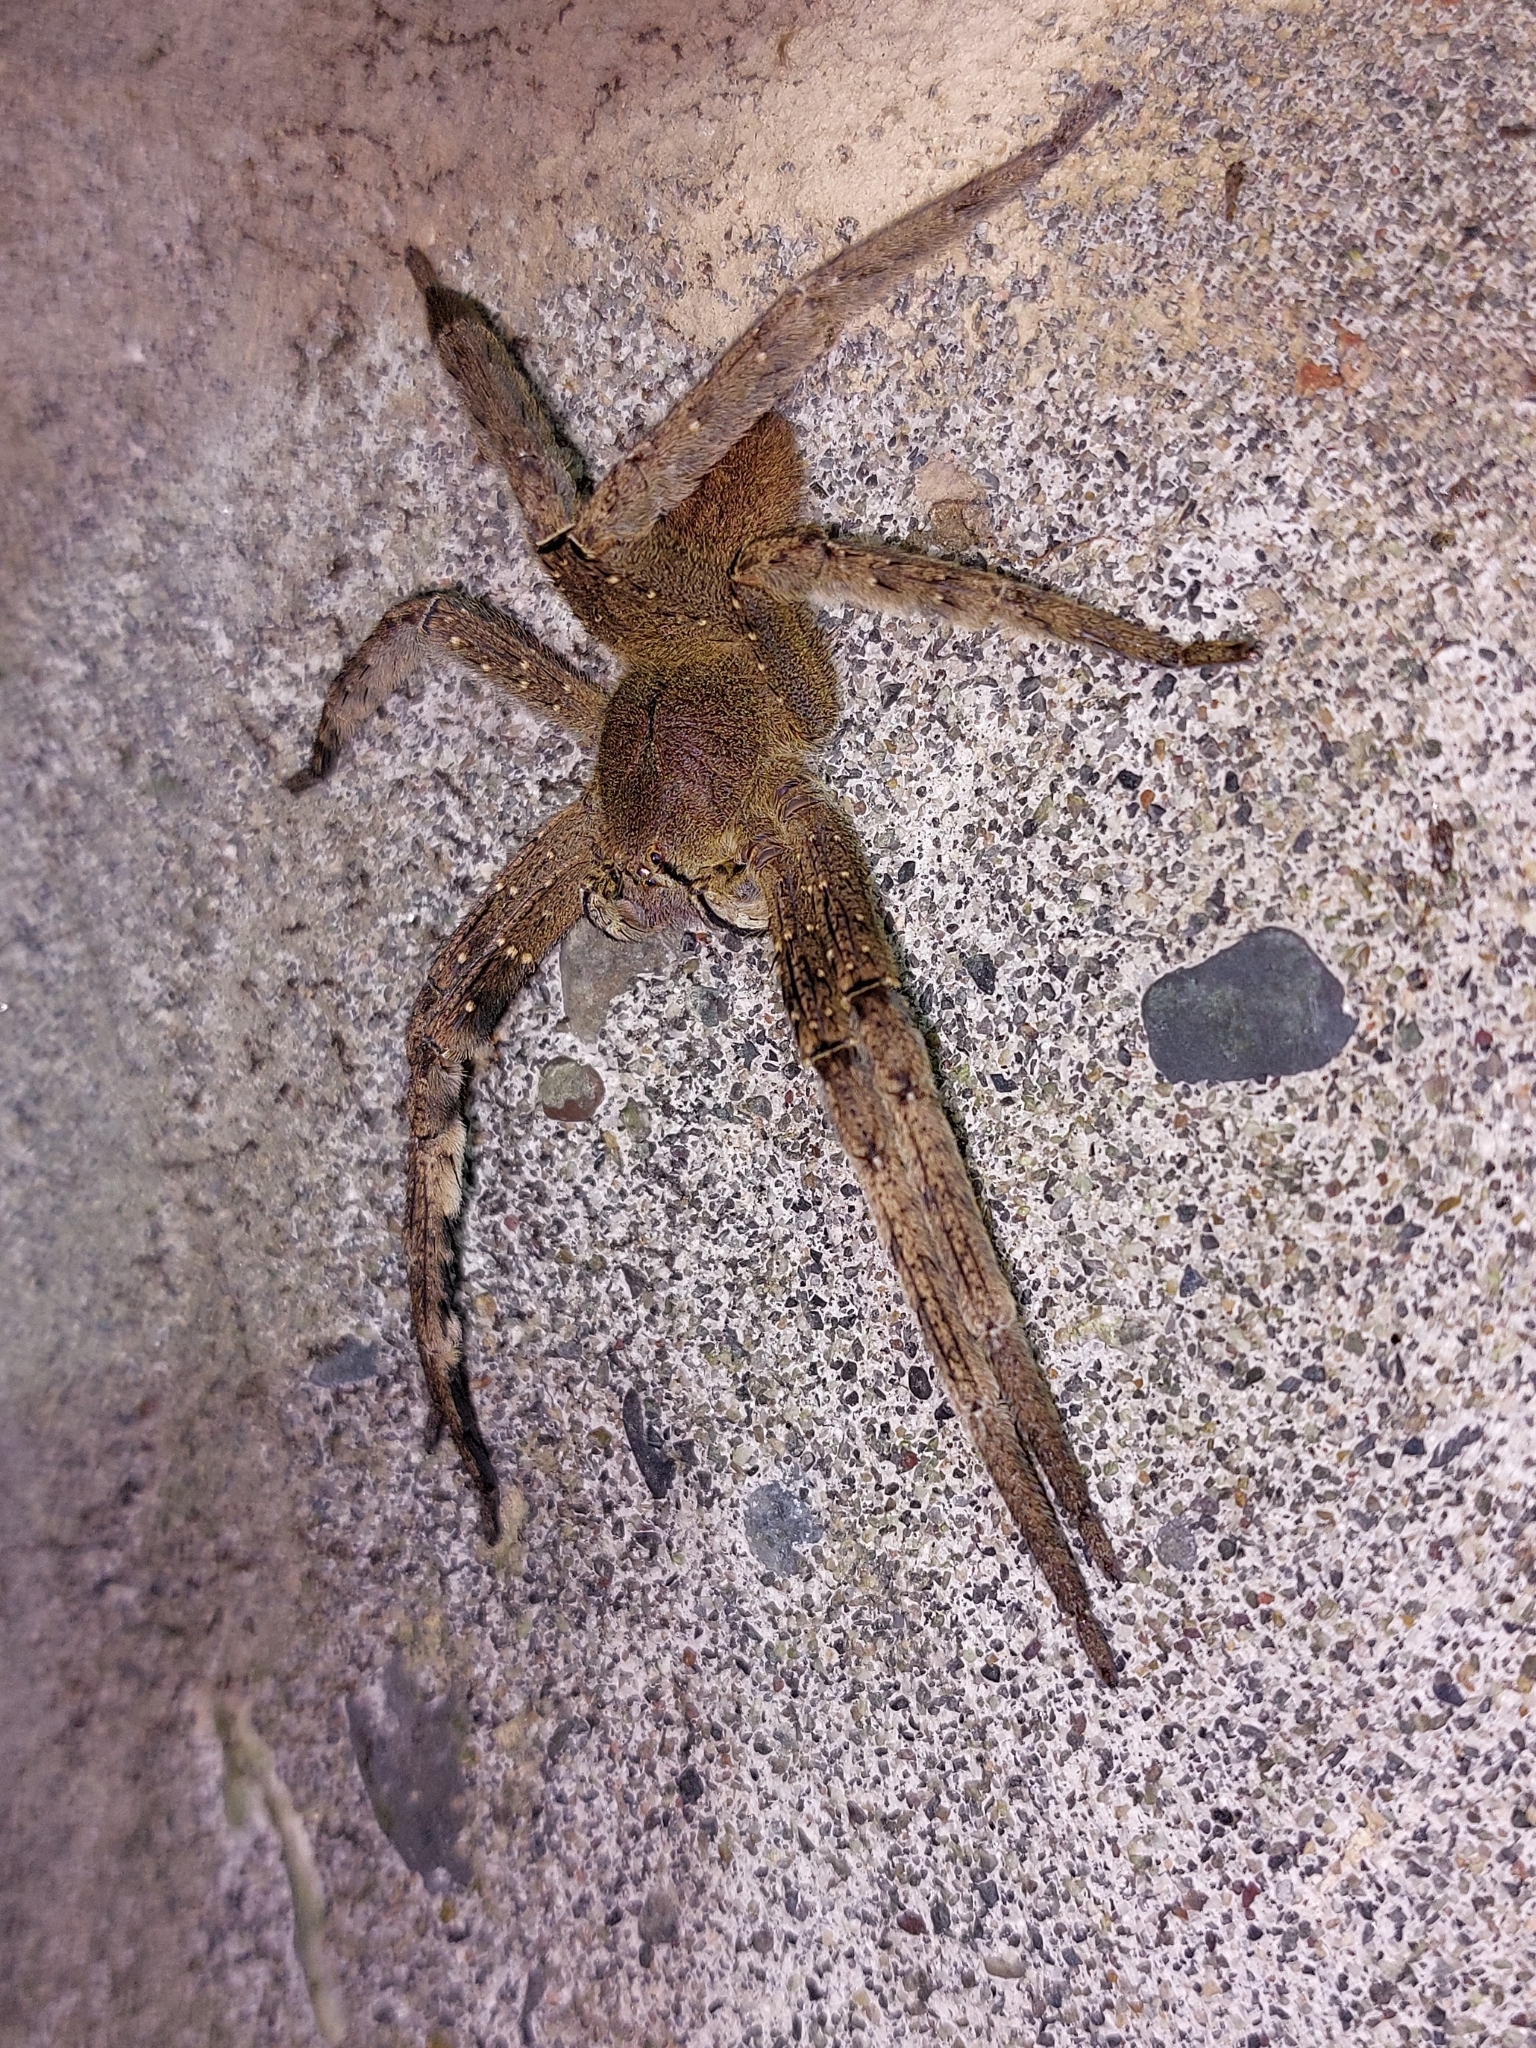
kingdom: Animalia
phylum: Arthropoda
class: Arachnida
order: Araneae
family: Ctenidae
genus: Phoneutria
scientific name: Phoneutria fera
